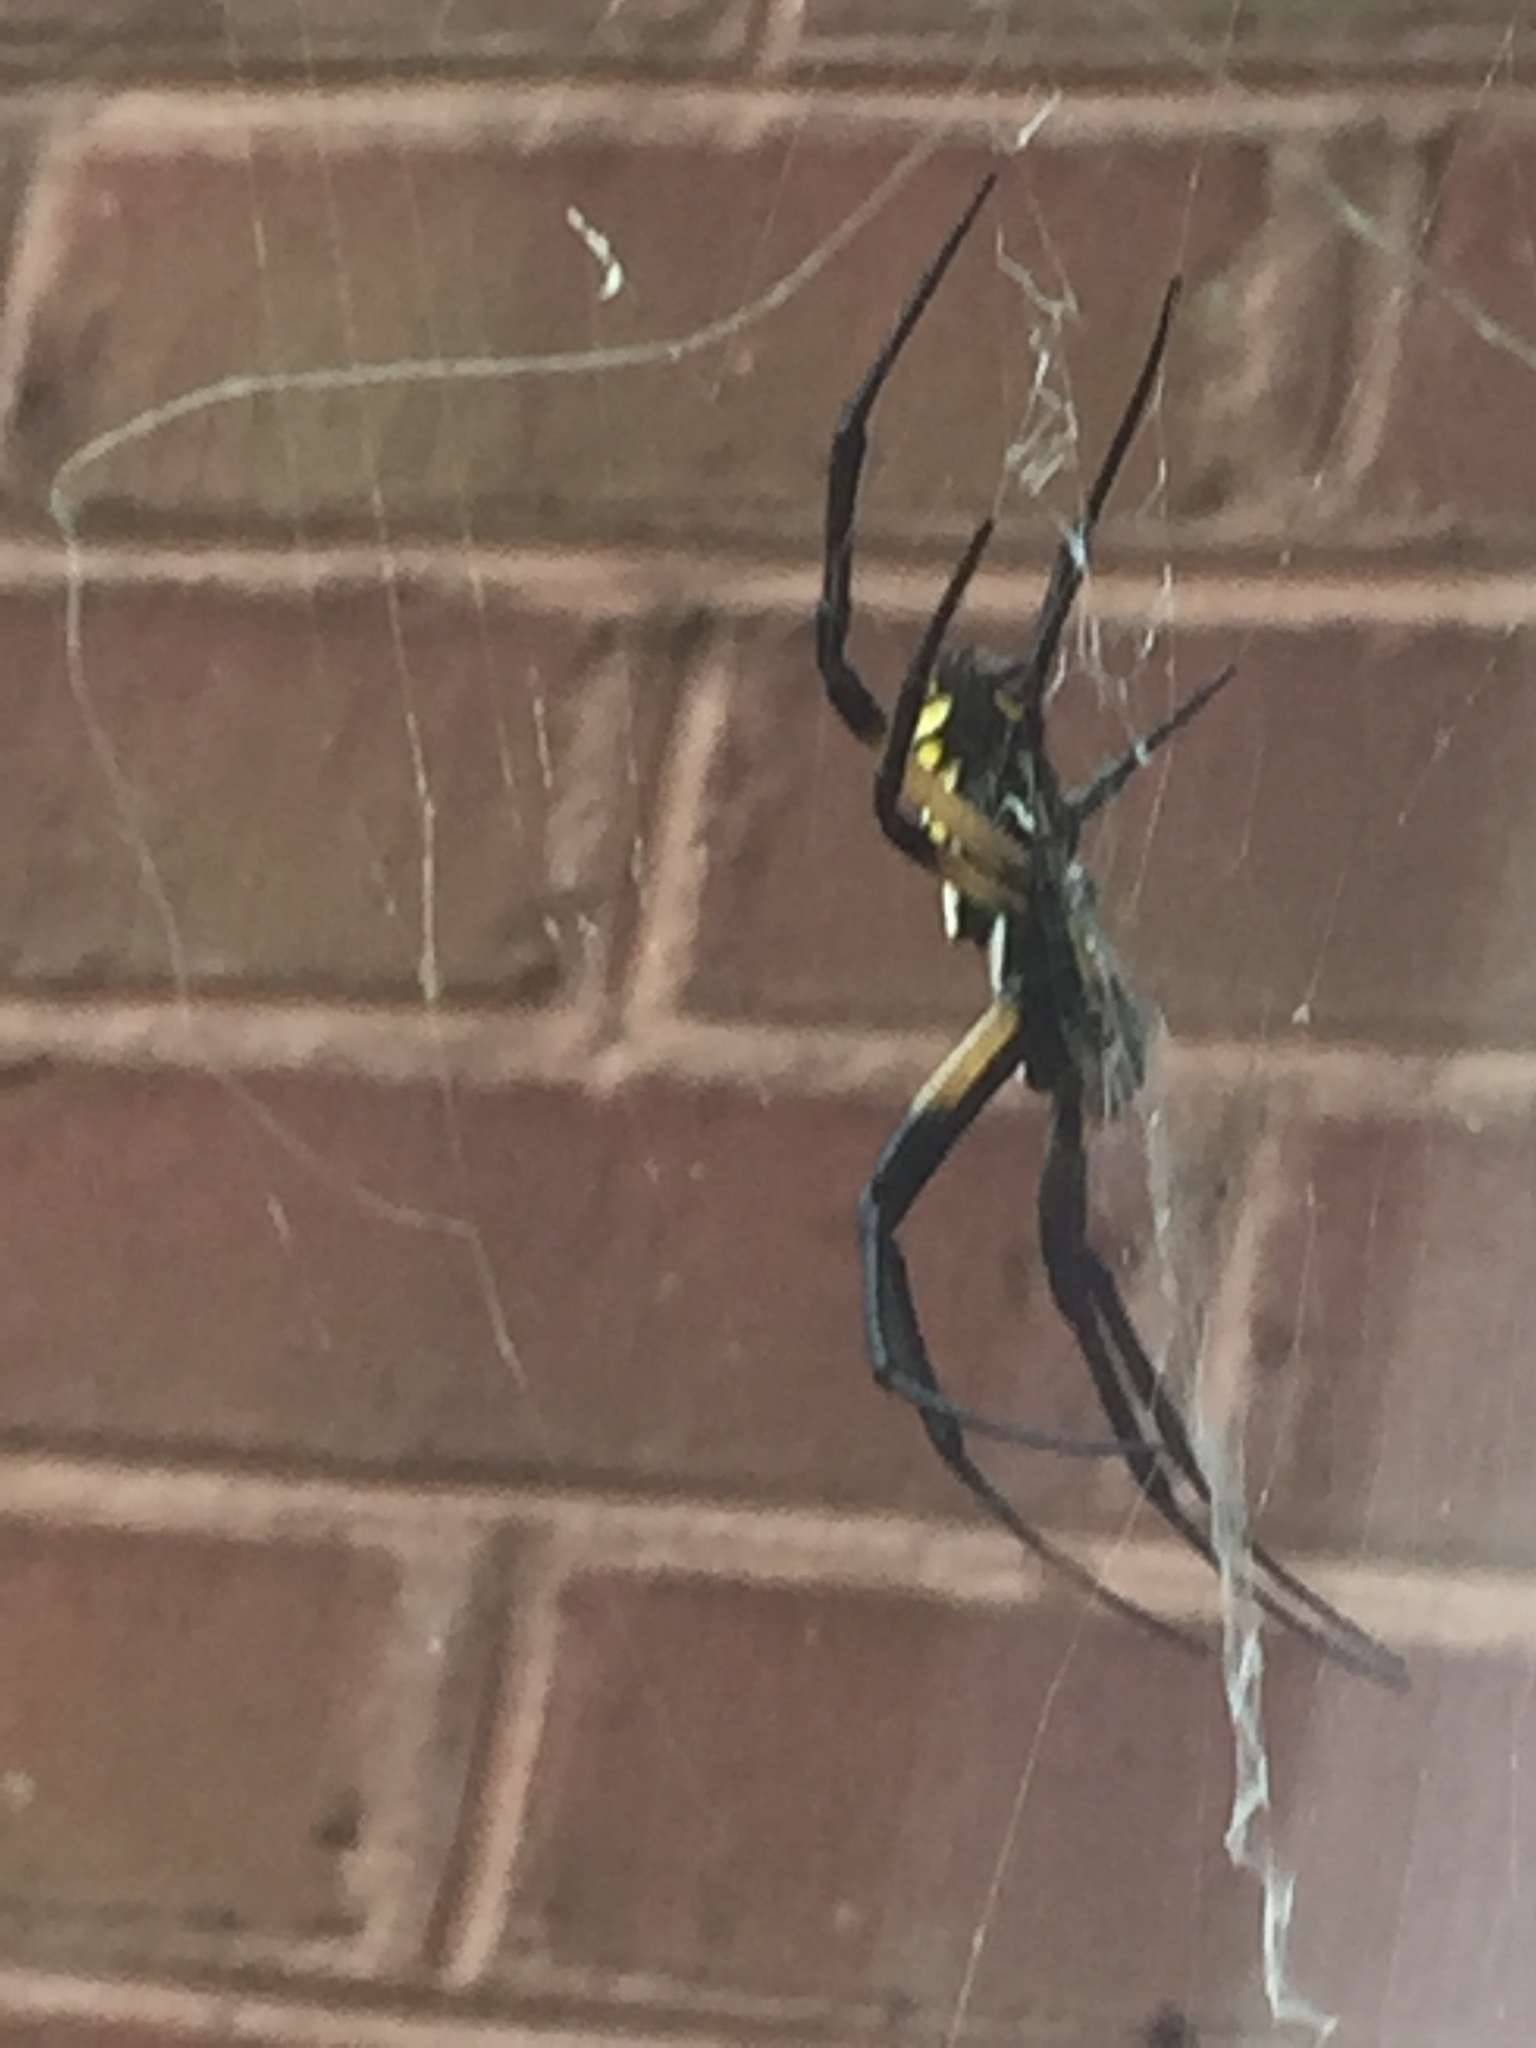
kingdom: Animalia
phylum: Arthropoda
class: Arachnida
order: Araneae
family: Araneidae
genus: Argiope
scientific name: Argiope aurantia
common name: Orb weavers
